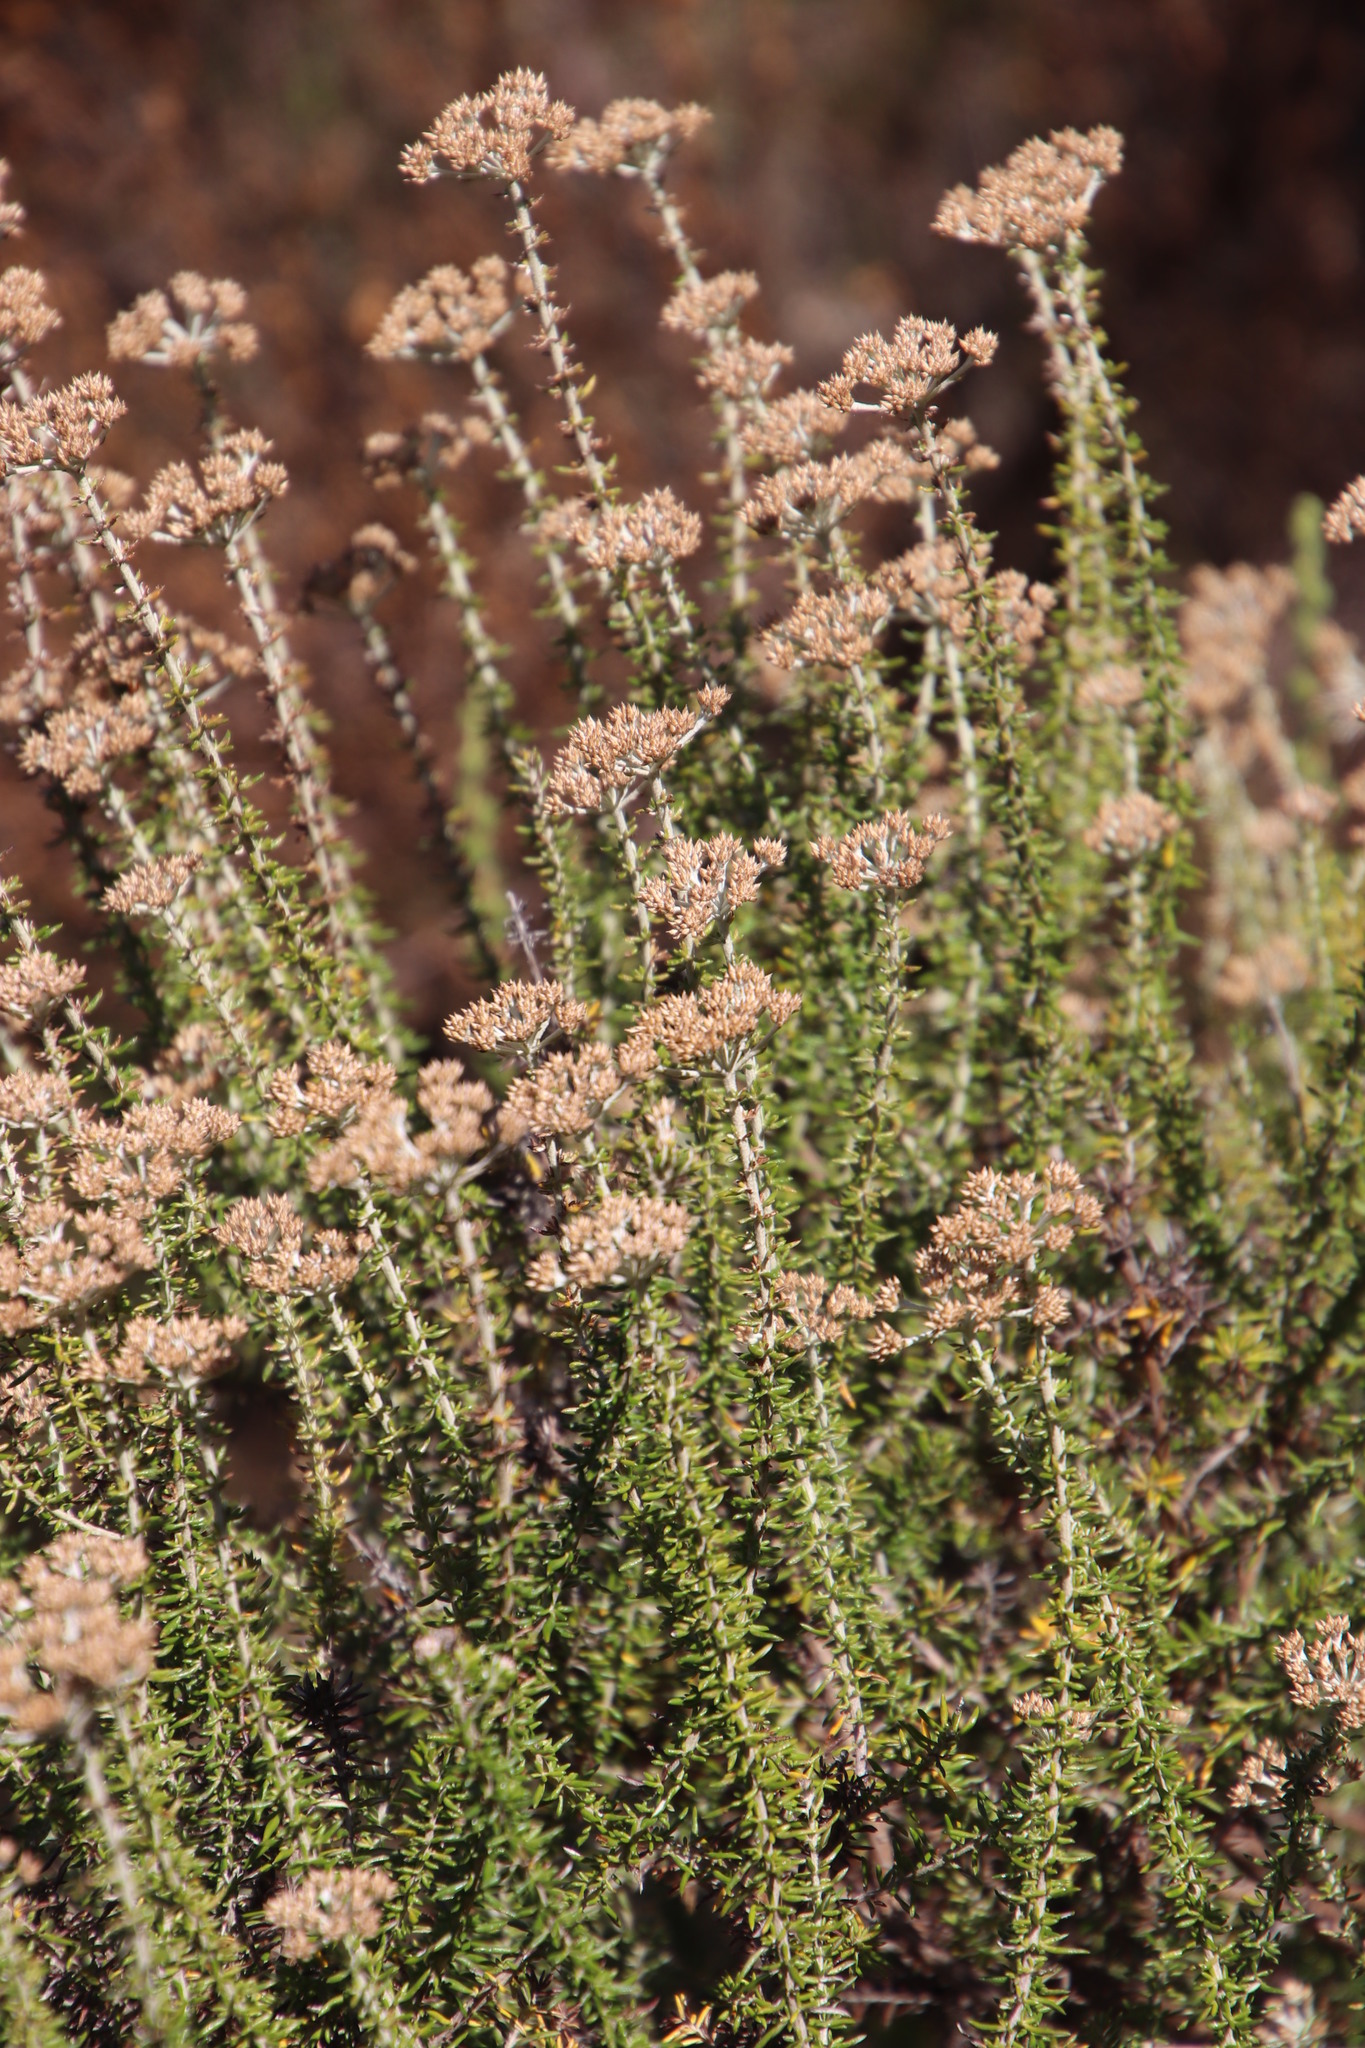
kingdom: Plantae
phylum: Tracheophyta
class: Magnoliopsida
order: Asterales
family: Asteraceae
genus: Metalasia
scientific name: Metalasia densa
